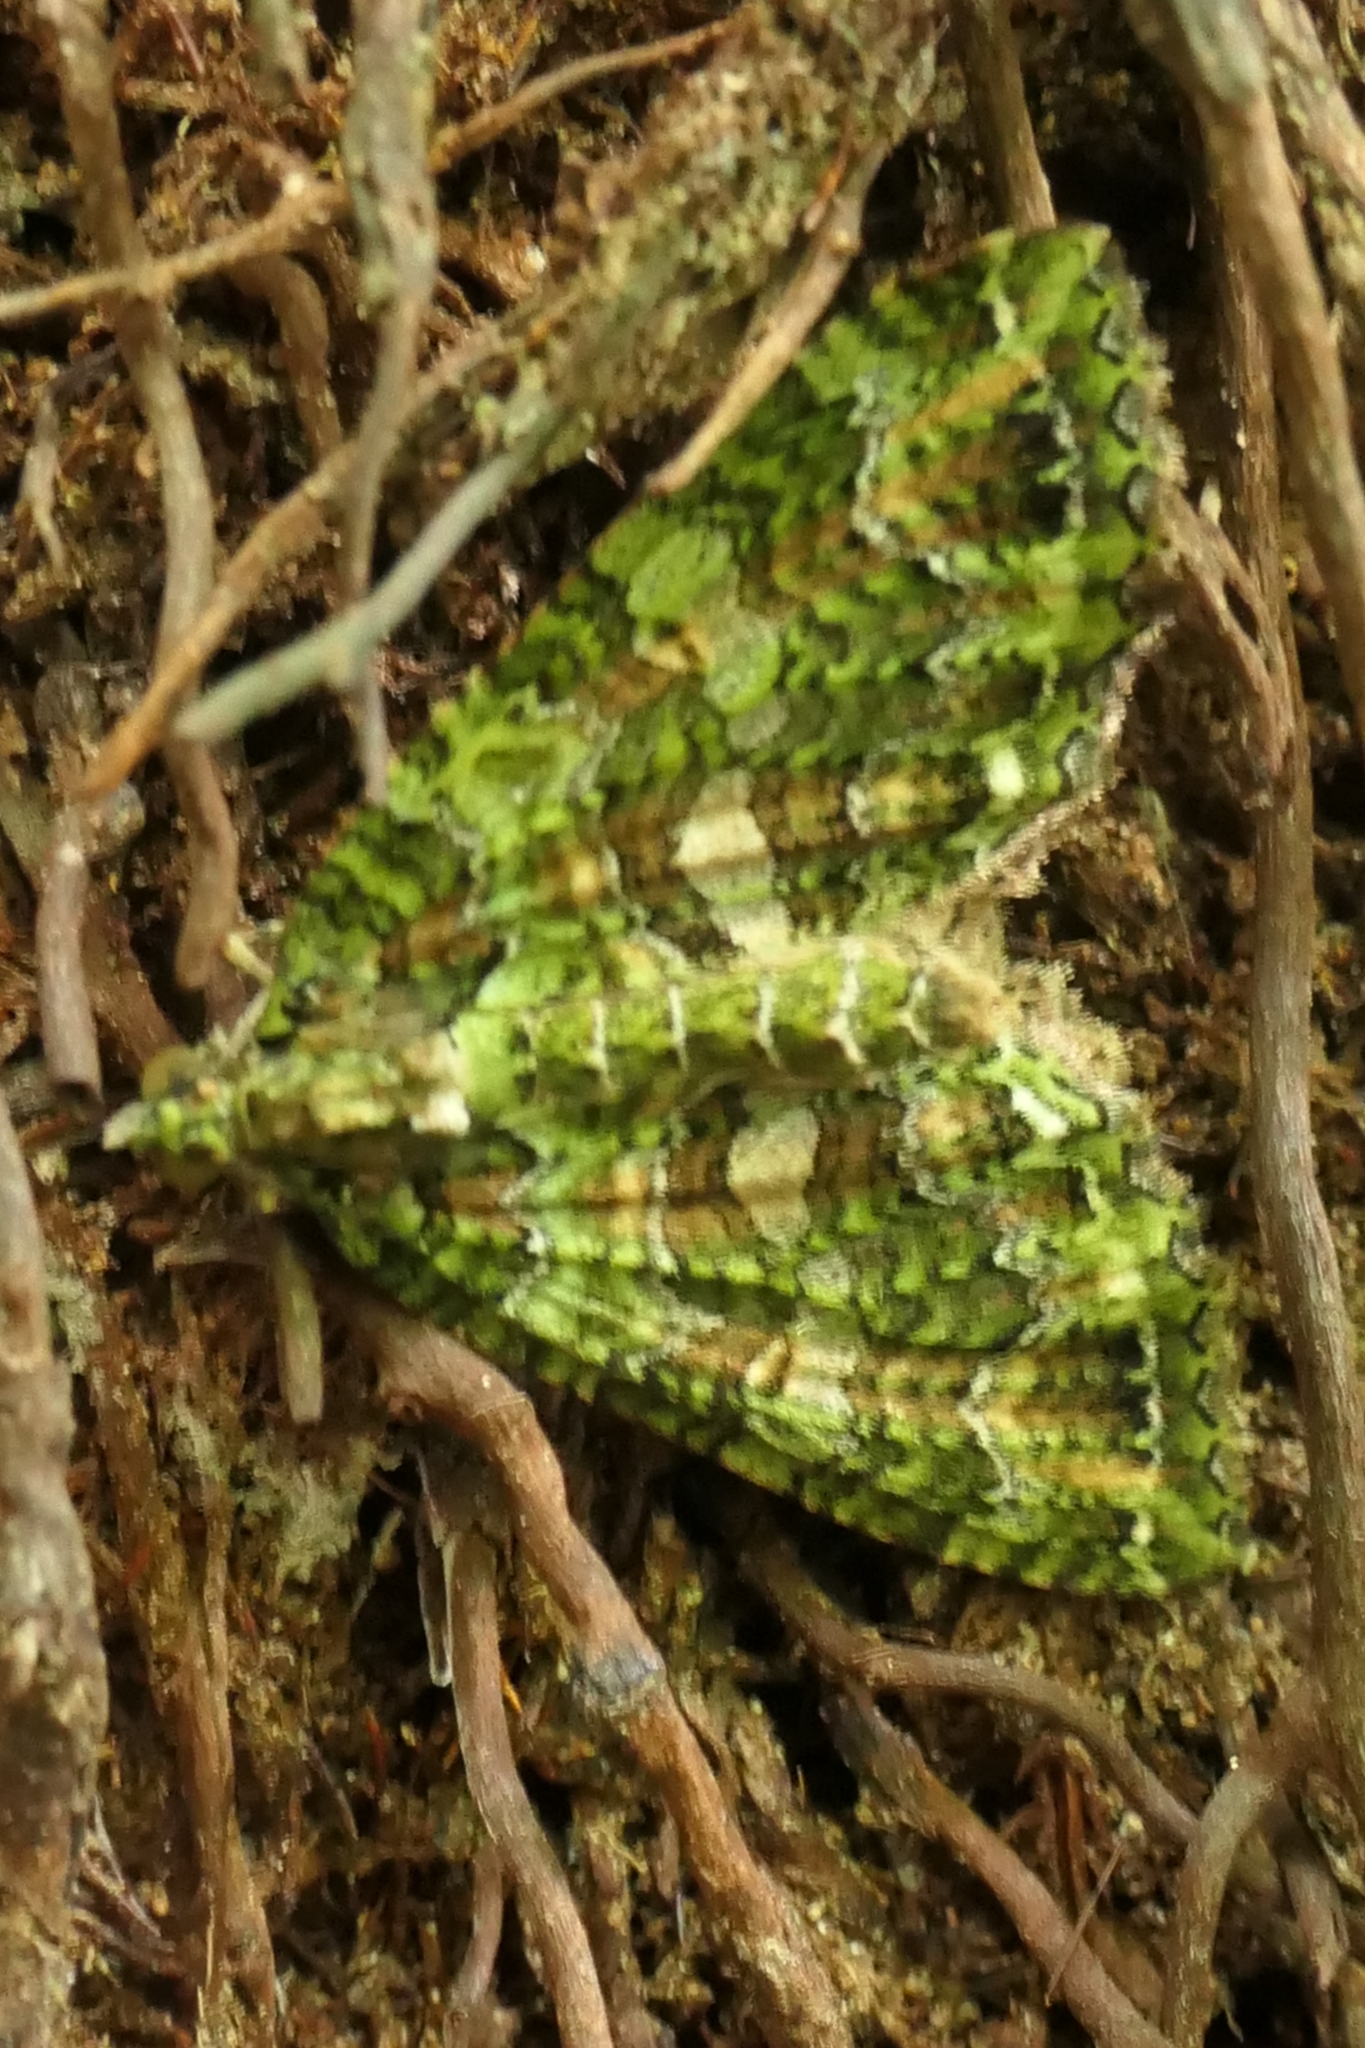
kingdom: Animalia
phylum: Arthropoda
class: Insecta
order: Lepidoptera
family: Geometridae
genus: Austrocidaria
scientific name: Austrocidaria similata
